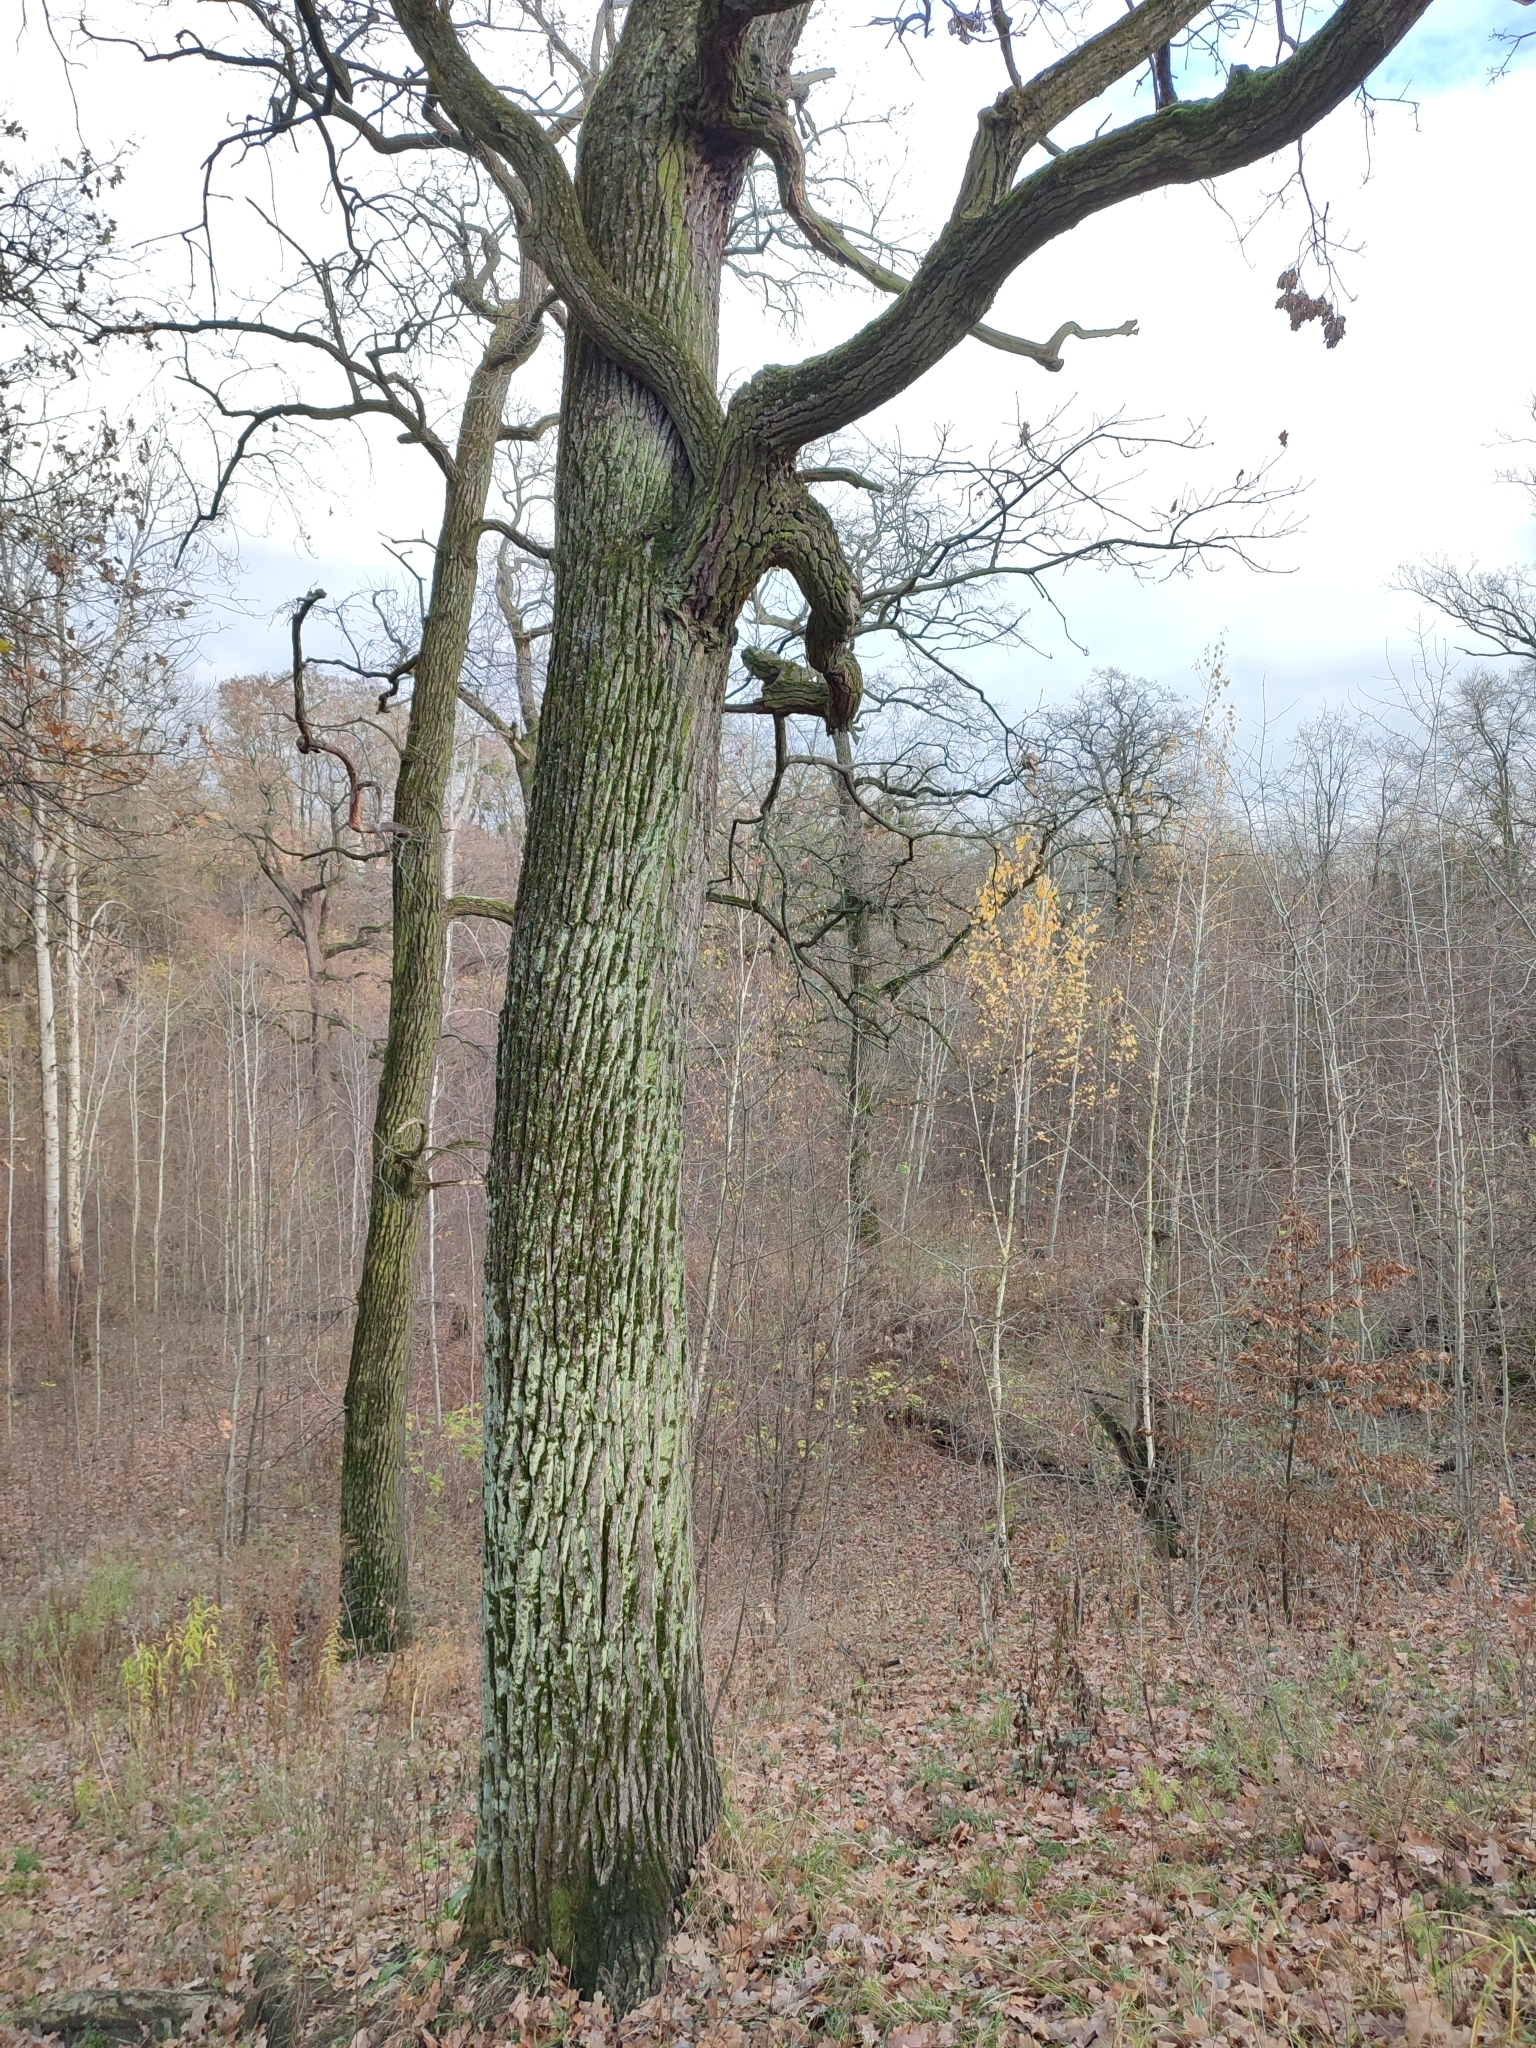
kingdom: Plantae
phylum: Tracheophyta
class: Magnoliopsida
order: Fagales
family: Fagaceae
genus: Quercus
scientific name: Quercus robur
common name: Pedunculate oak
